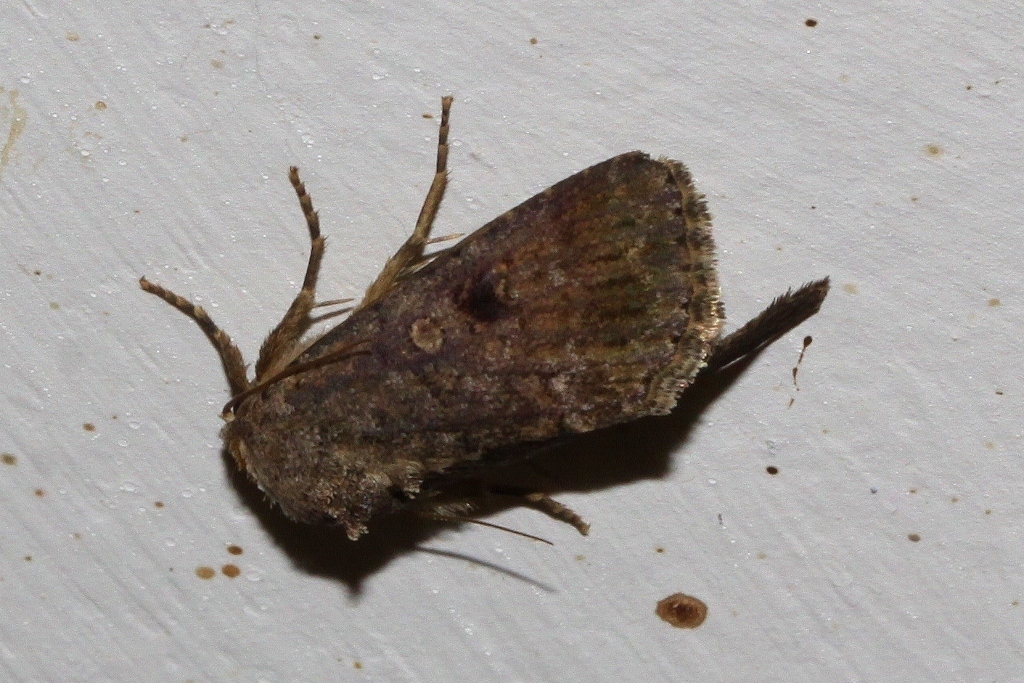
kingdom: Animalia
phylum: Arthropoda
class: Insecta
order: Lepidoptera
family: Noctuidae
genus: Spodoptera
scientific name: Spodoptera cilium
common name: Dark mottled willow
